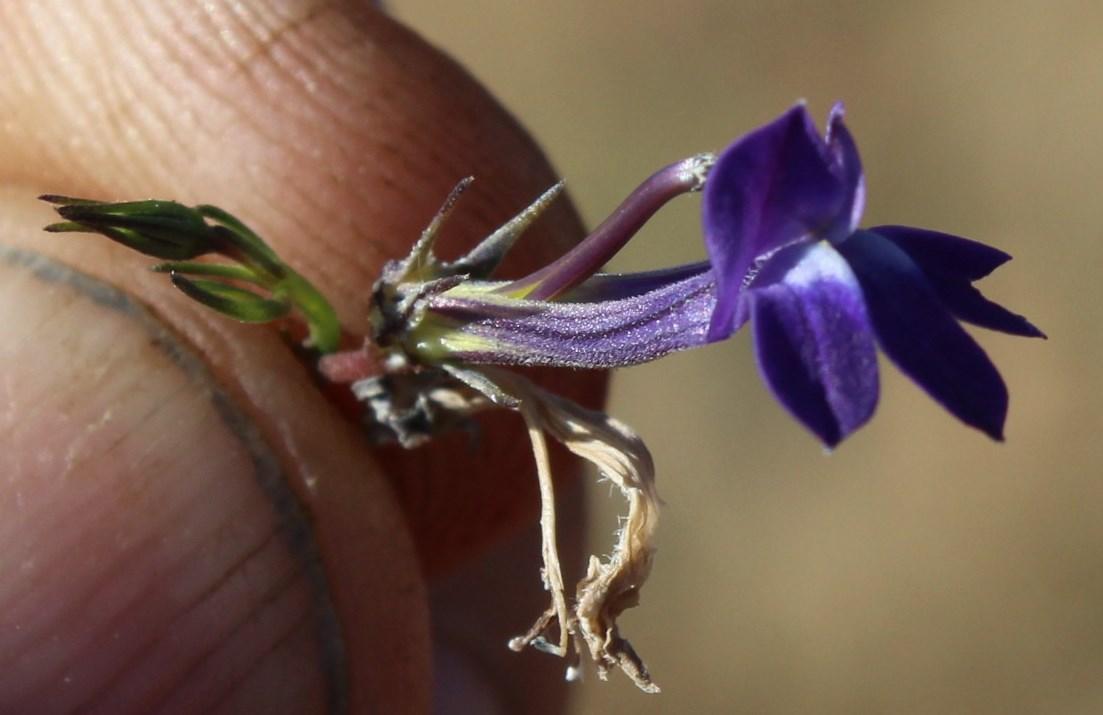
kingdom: Plantae
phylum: Tracheophyta
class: Magnoliopsida
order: Asterales
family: Campanulaceae
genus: Lobelia
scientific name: Lobelia linearis
